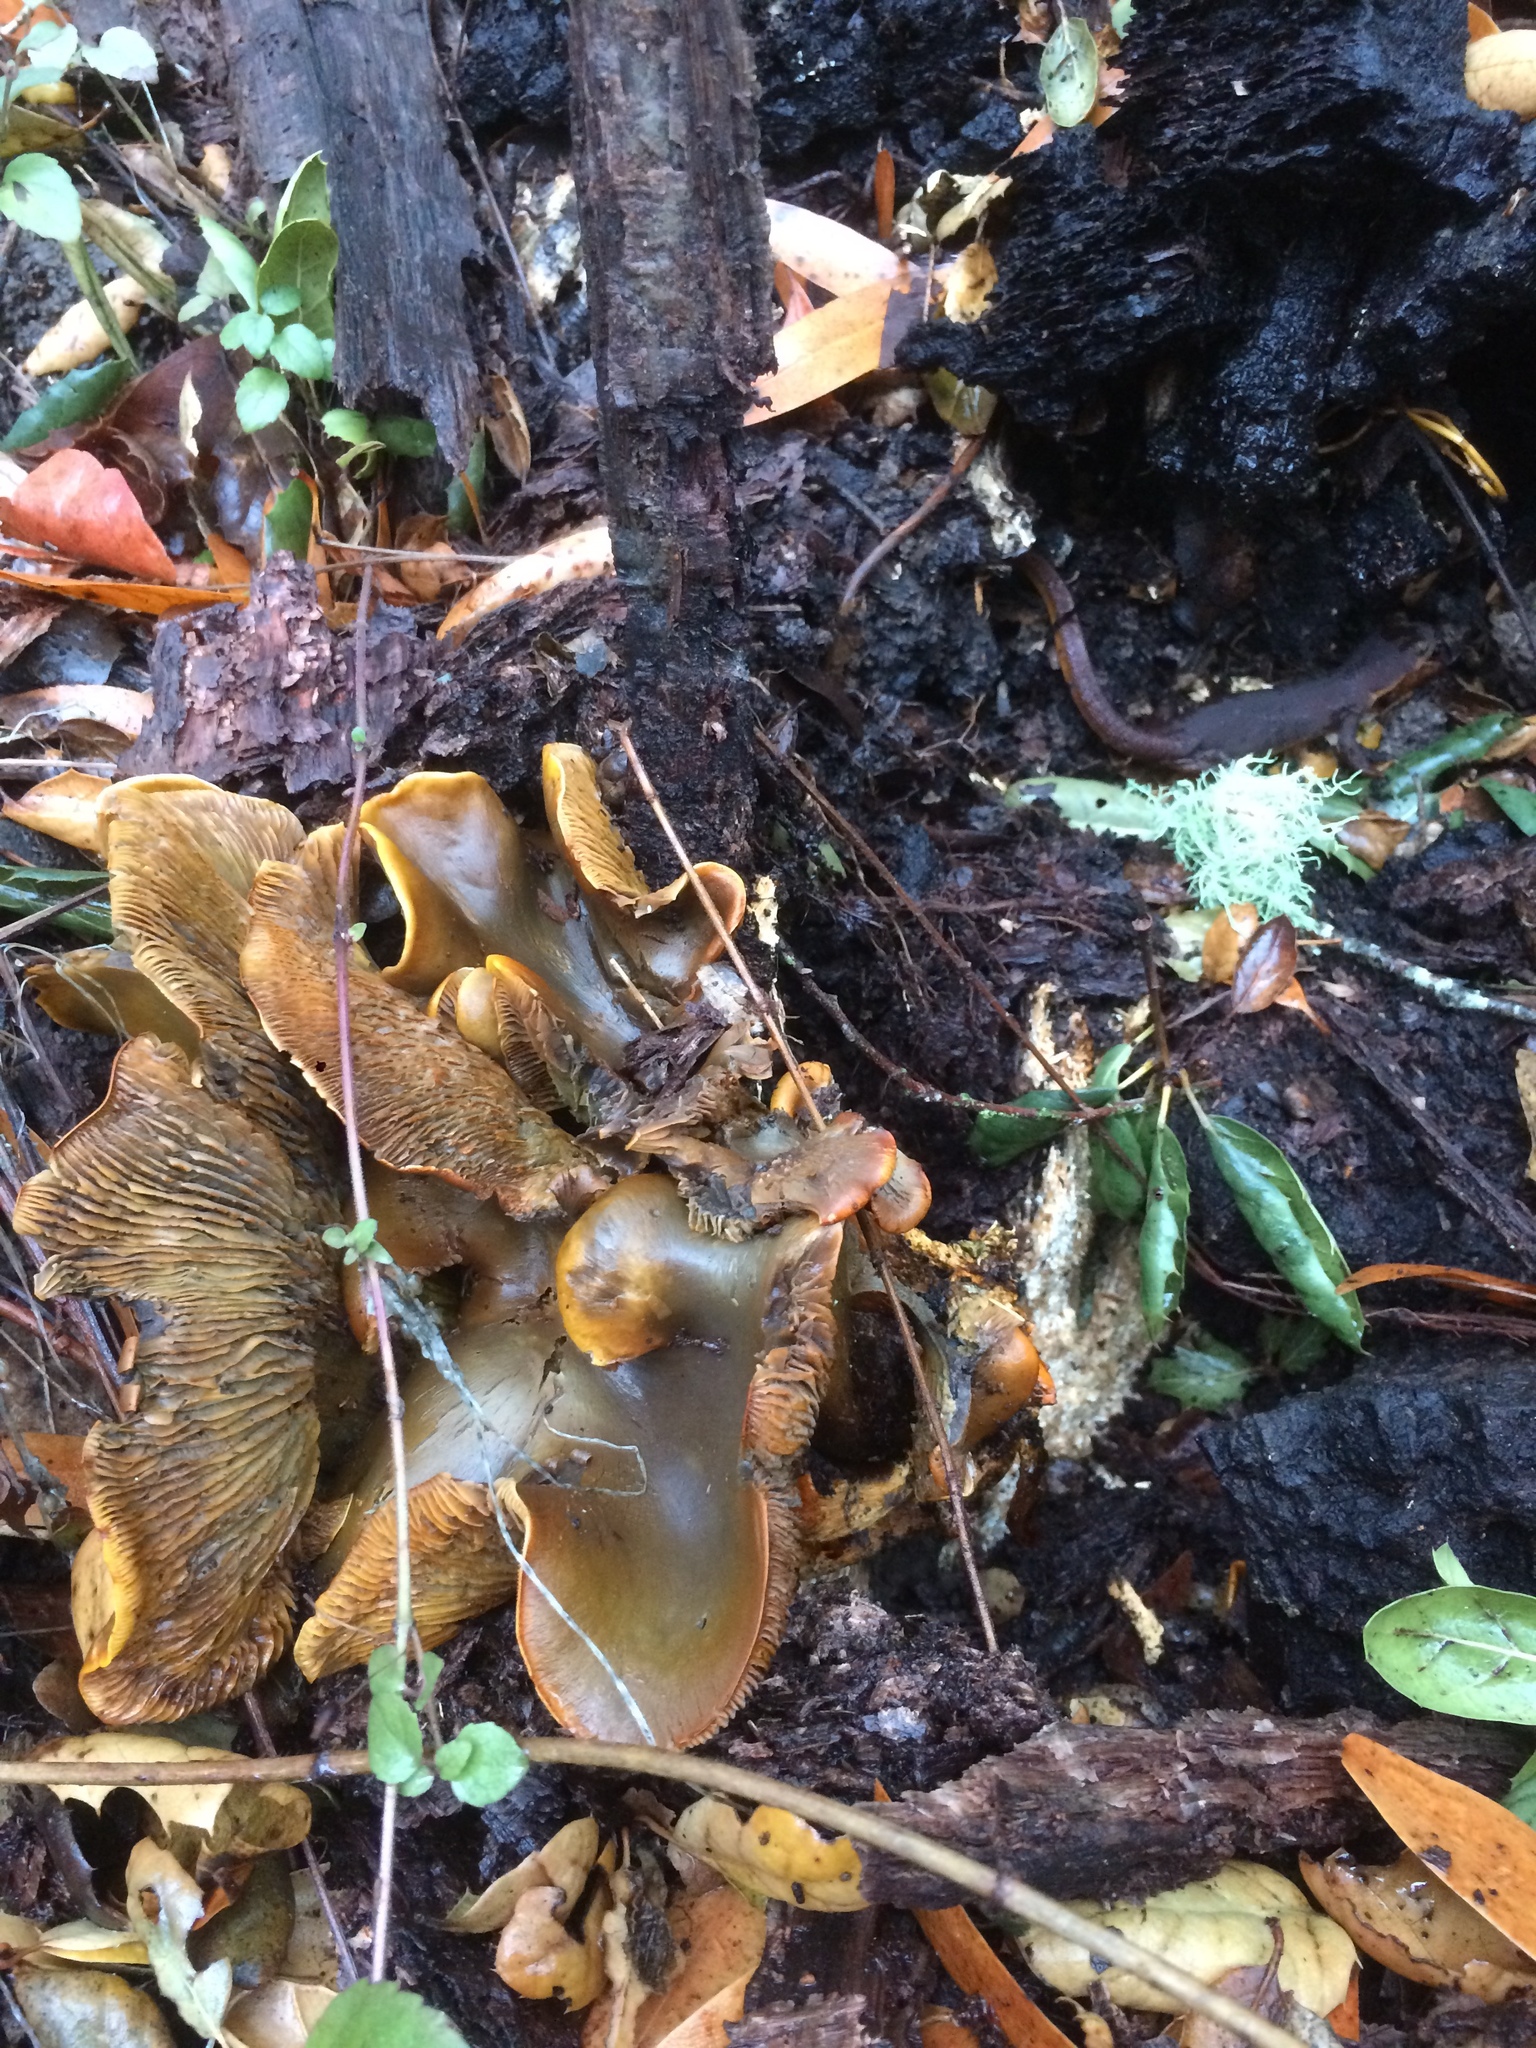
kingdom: Fungi
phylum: Basidiomycota
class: Agaricomycetes
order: Agaricales
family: Omphalotaceae
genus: Omphalotus
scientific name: Omphalotus olivascens
